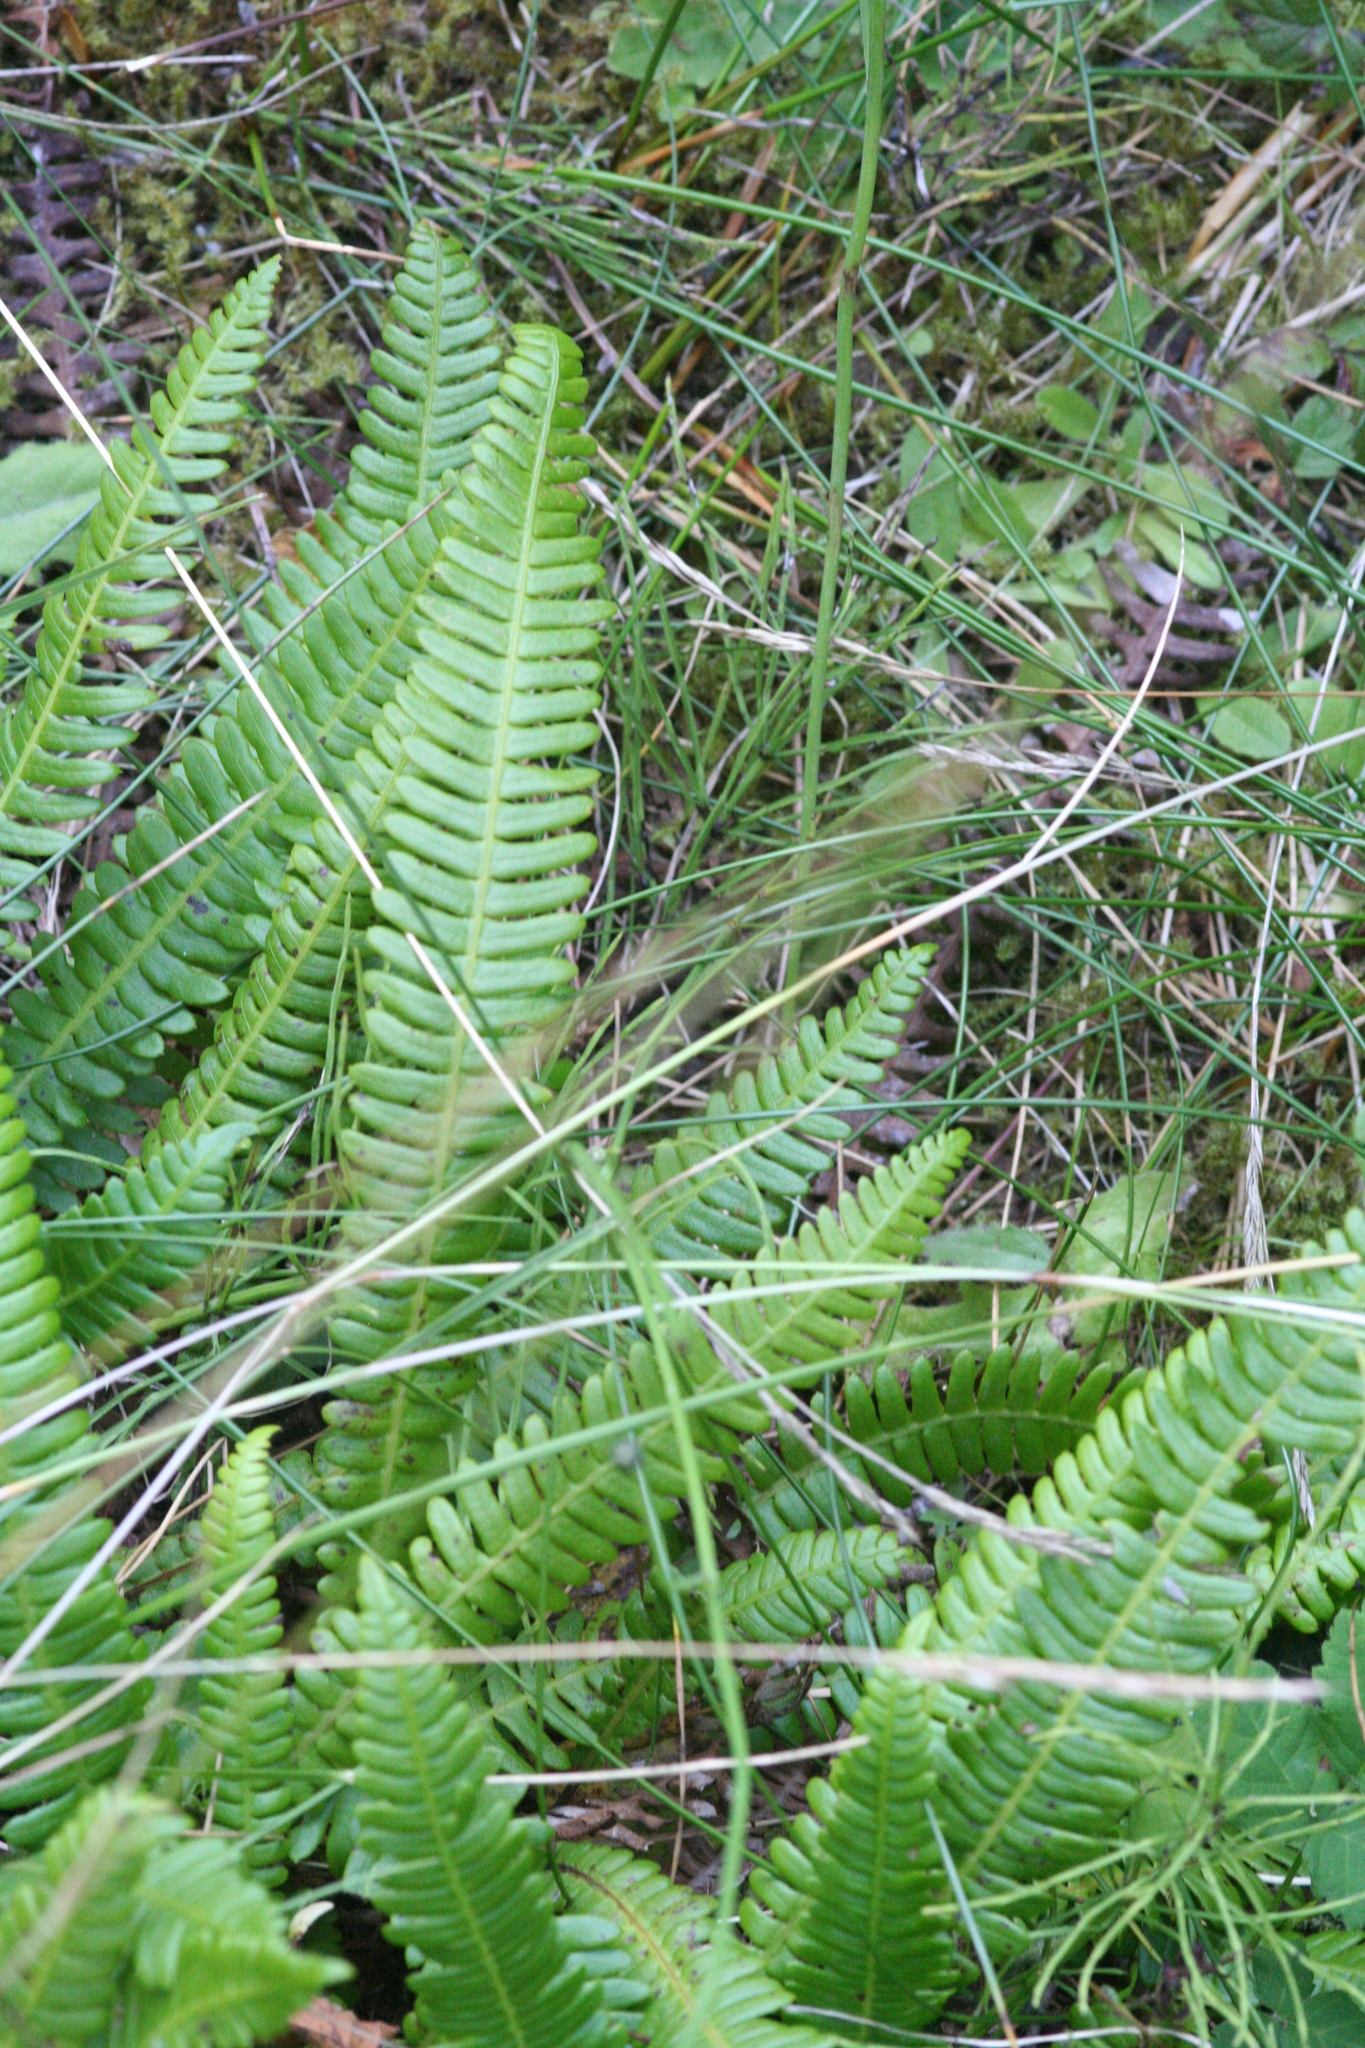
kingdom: Plantae
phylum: Tracheophyta
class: Polypodiopsida
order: Polypodiales
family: Blechnaceae
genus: Struthiopteris
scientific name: Struthiopteris spicant
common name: Deer fern
